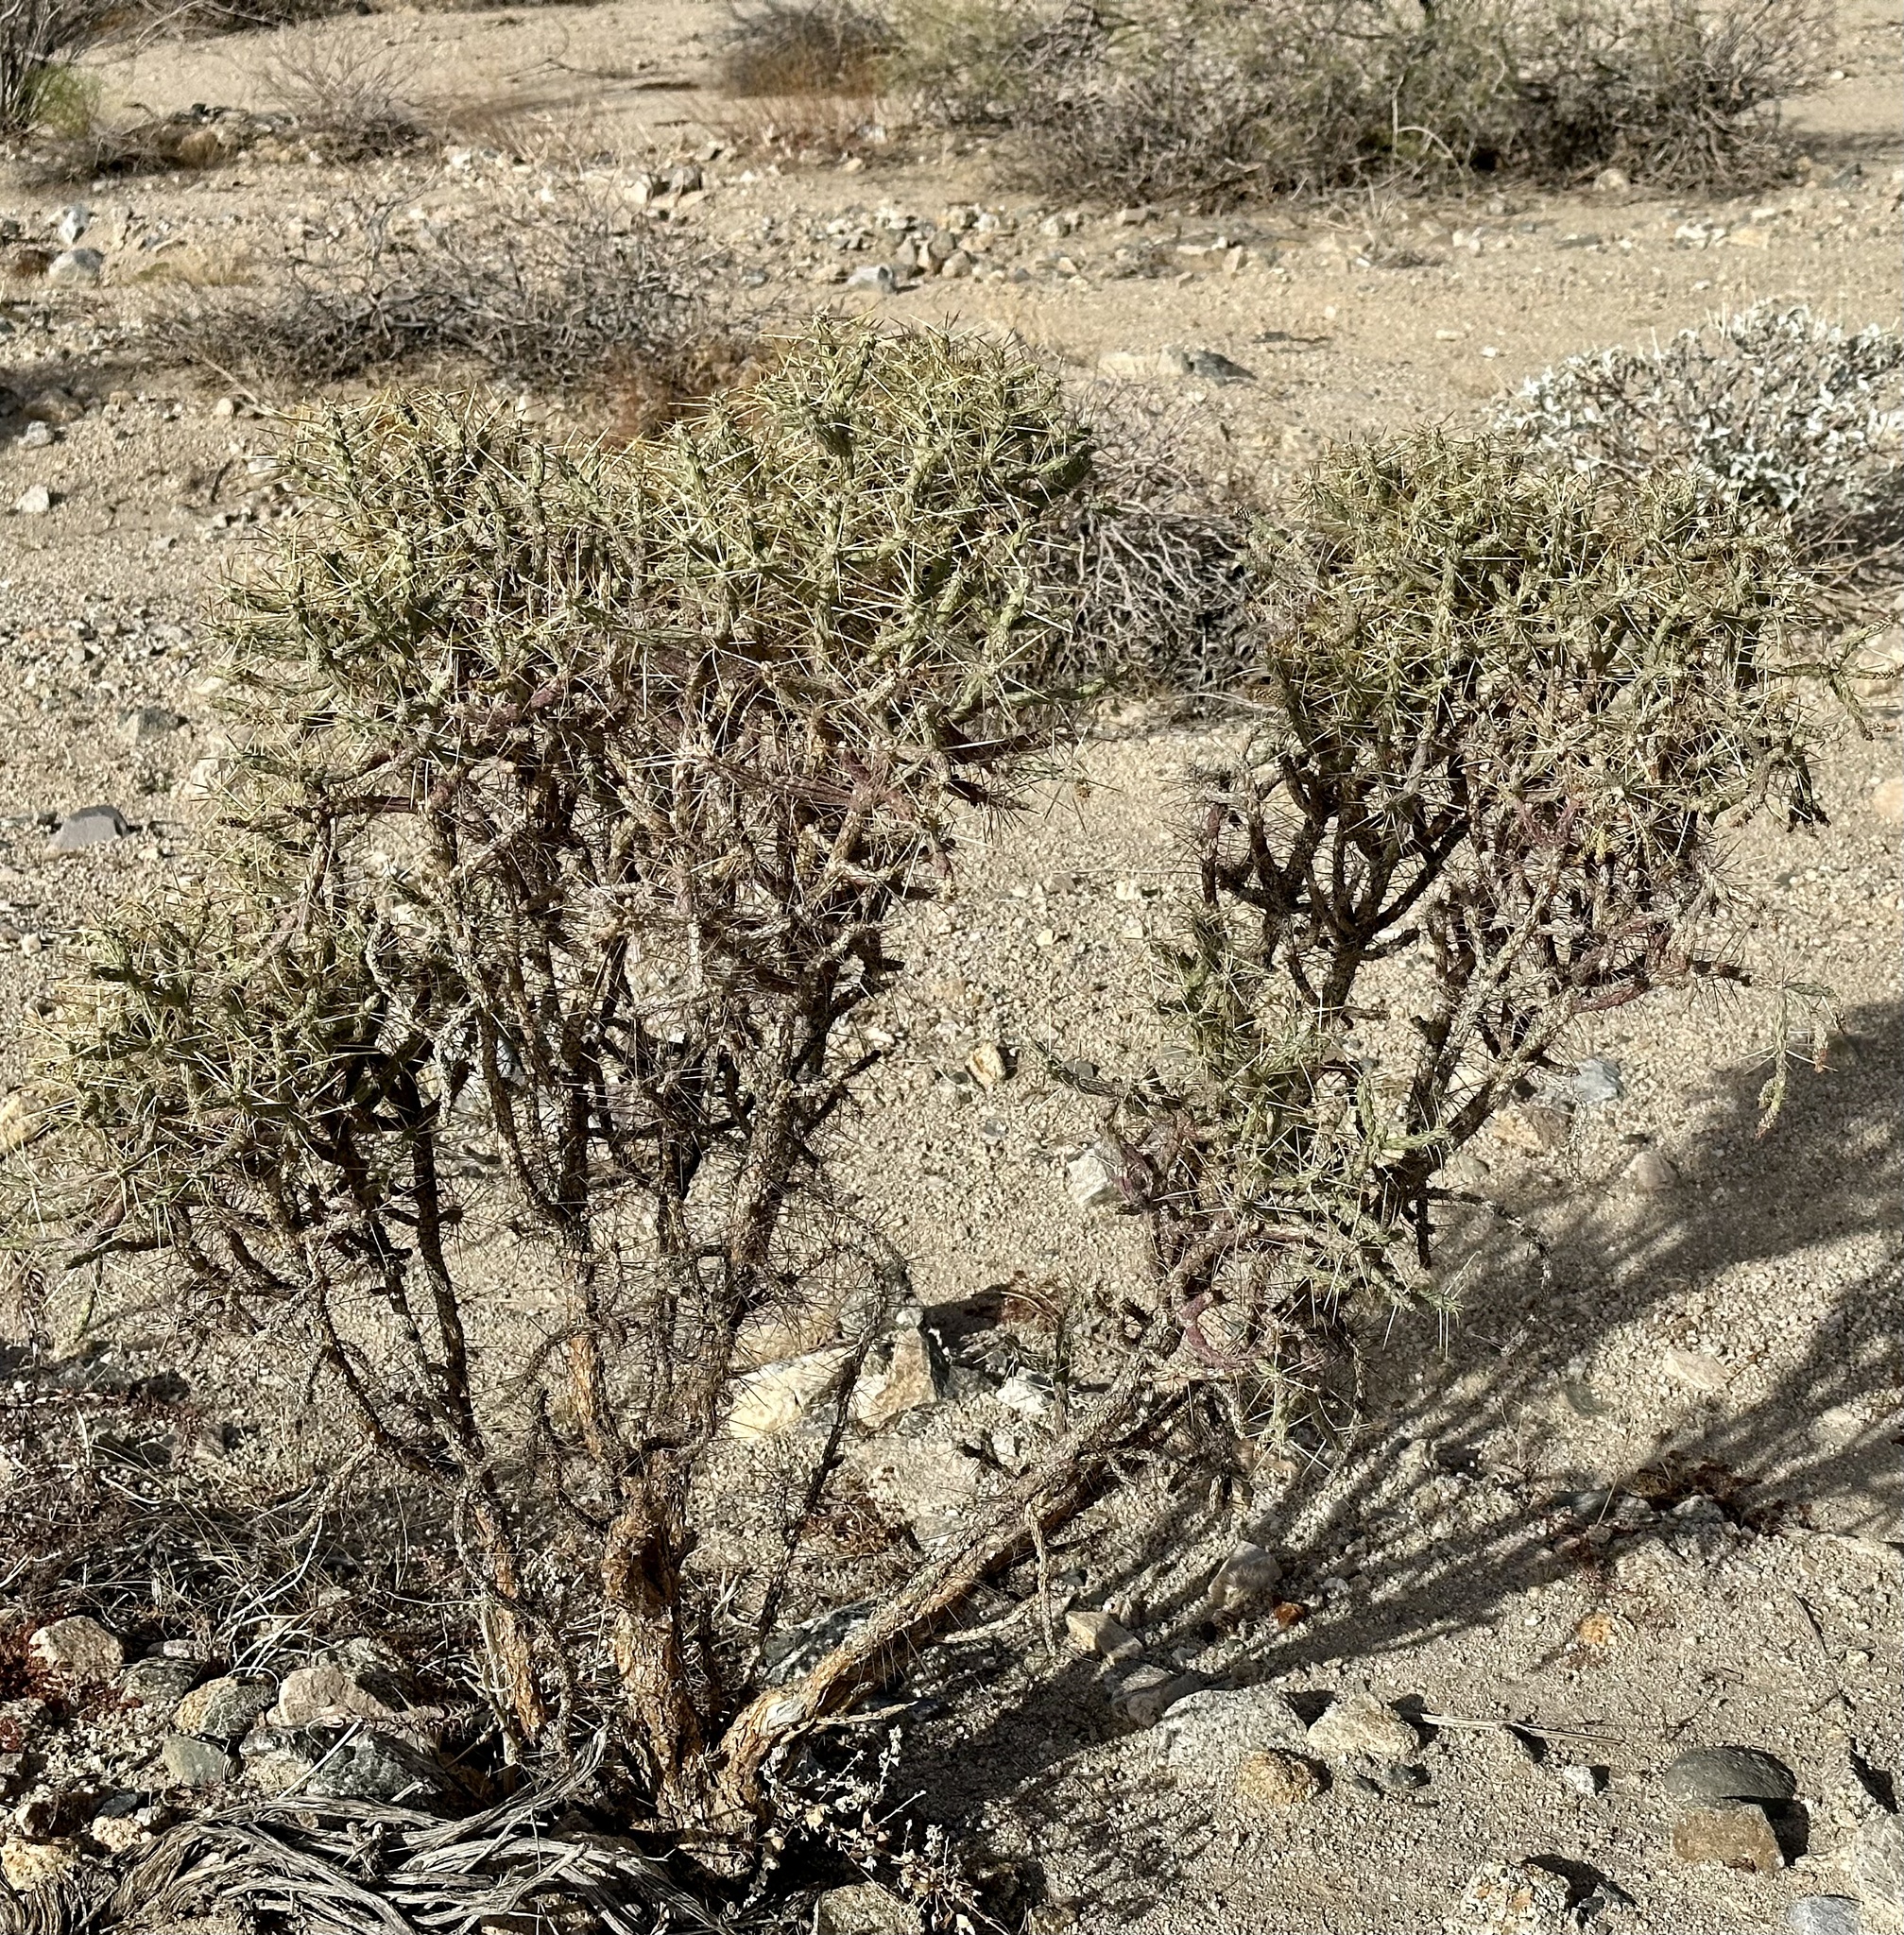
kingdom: Plantae
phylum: Tracheophyta
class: Magnoliopsida
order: Caryophyllales
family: Cactaceae
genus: Cylindropuntia
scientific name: Cylindropuntia ramosissima
